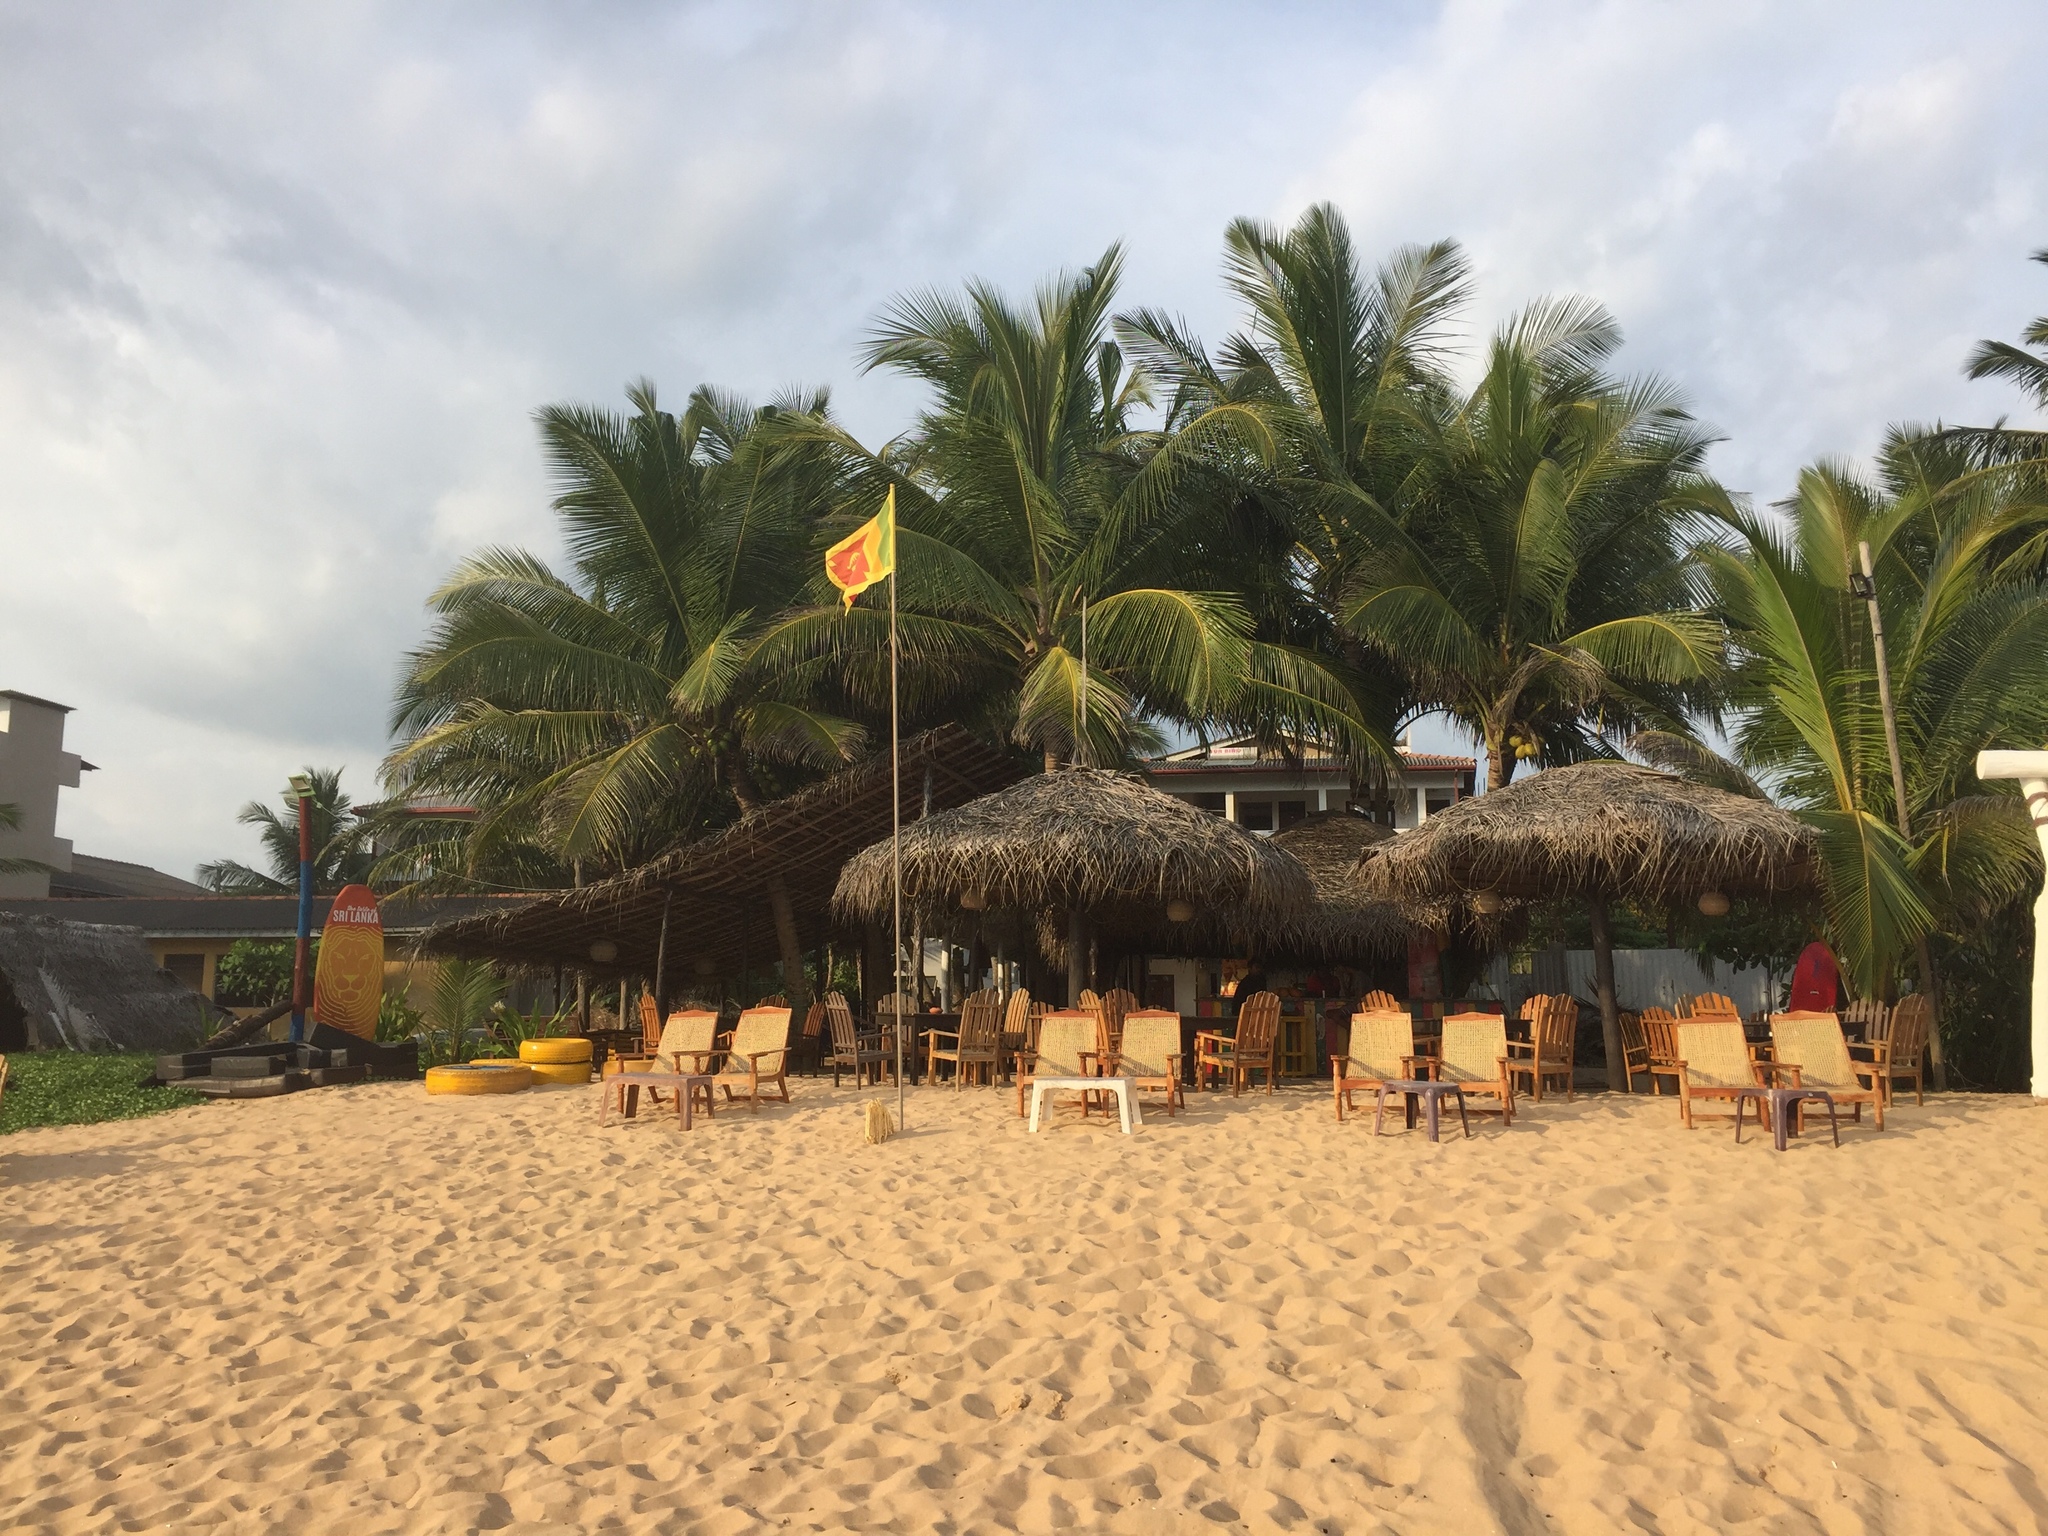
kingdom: Plantae
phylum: Tracheophyta
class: Liliopsida
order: Arecales
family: Arecaceae
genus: Cocos
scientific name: Cocos nucifera
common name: Coconut palm
